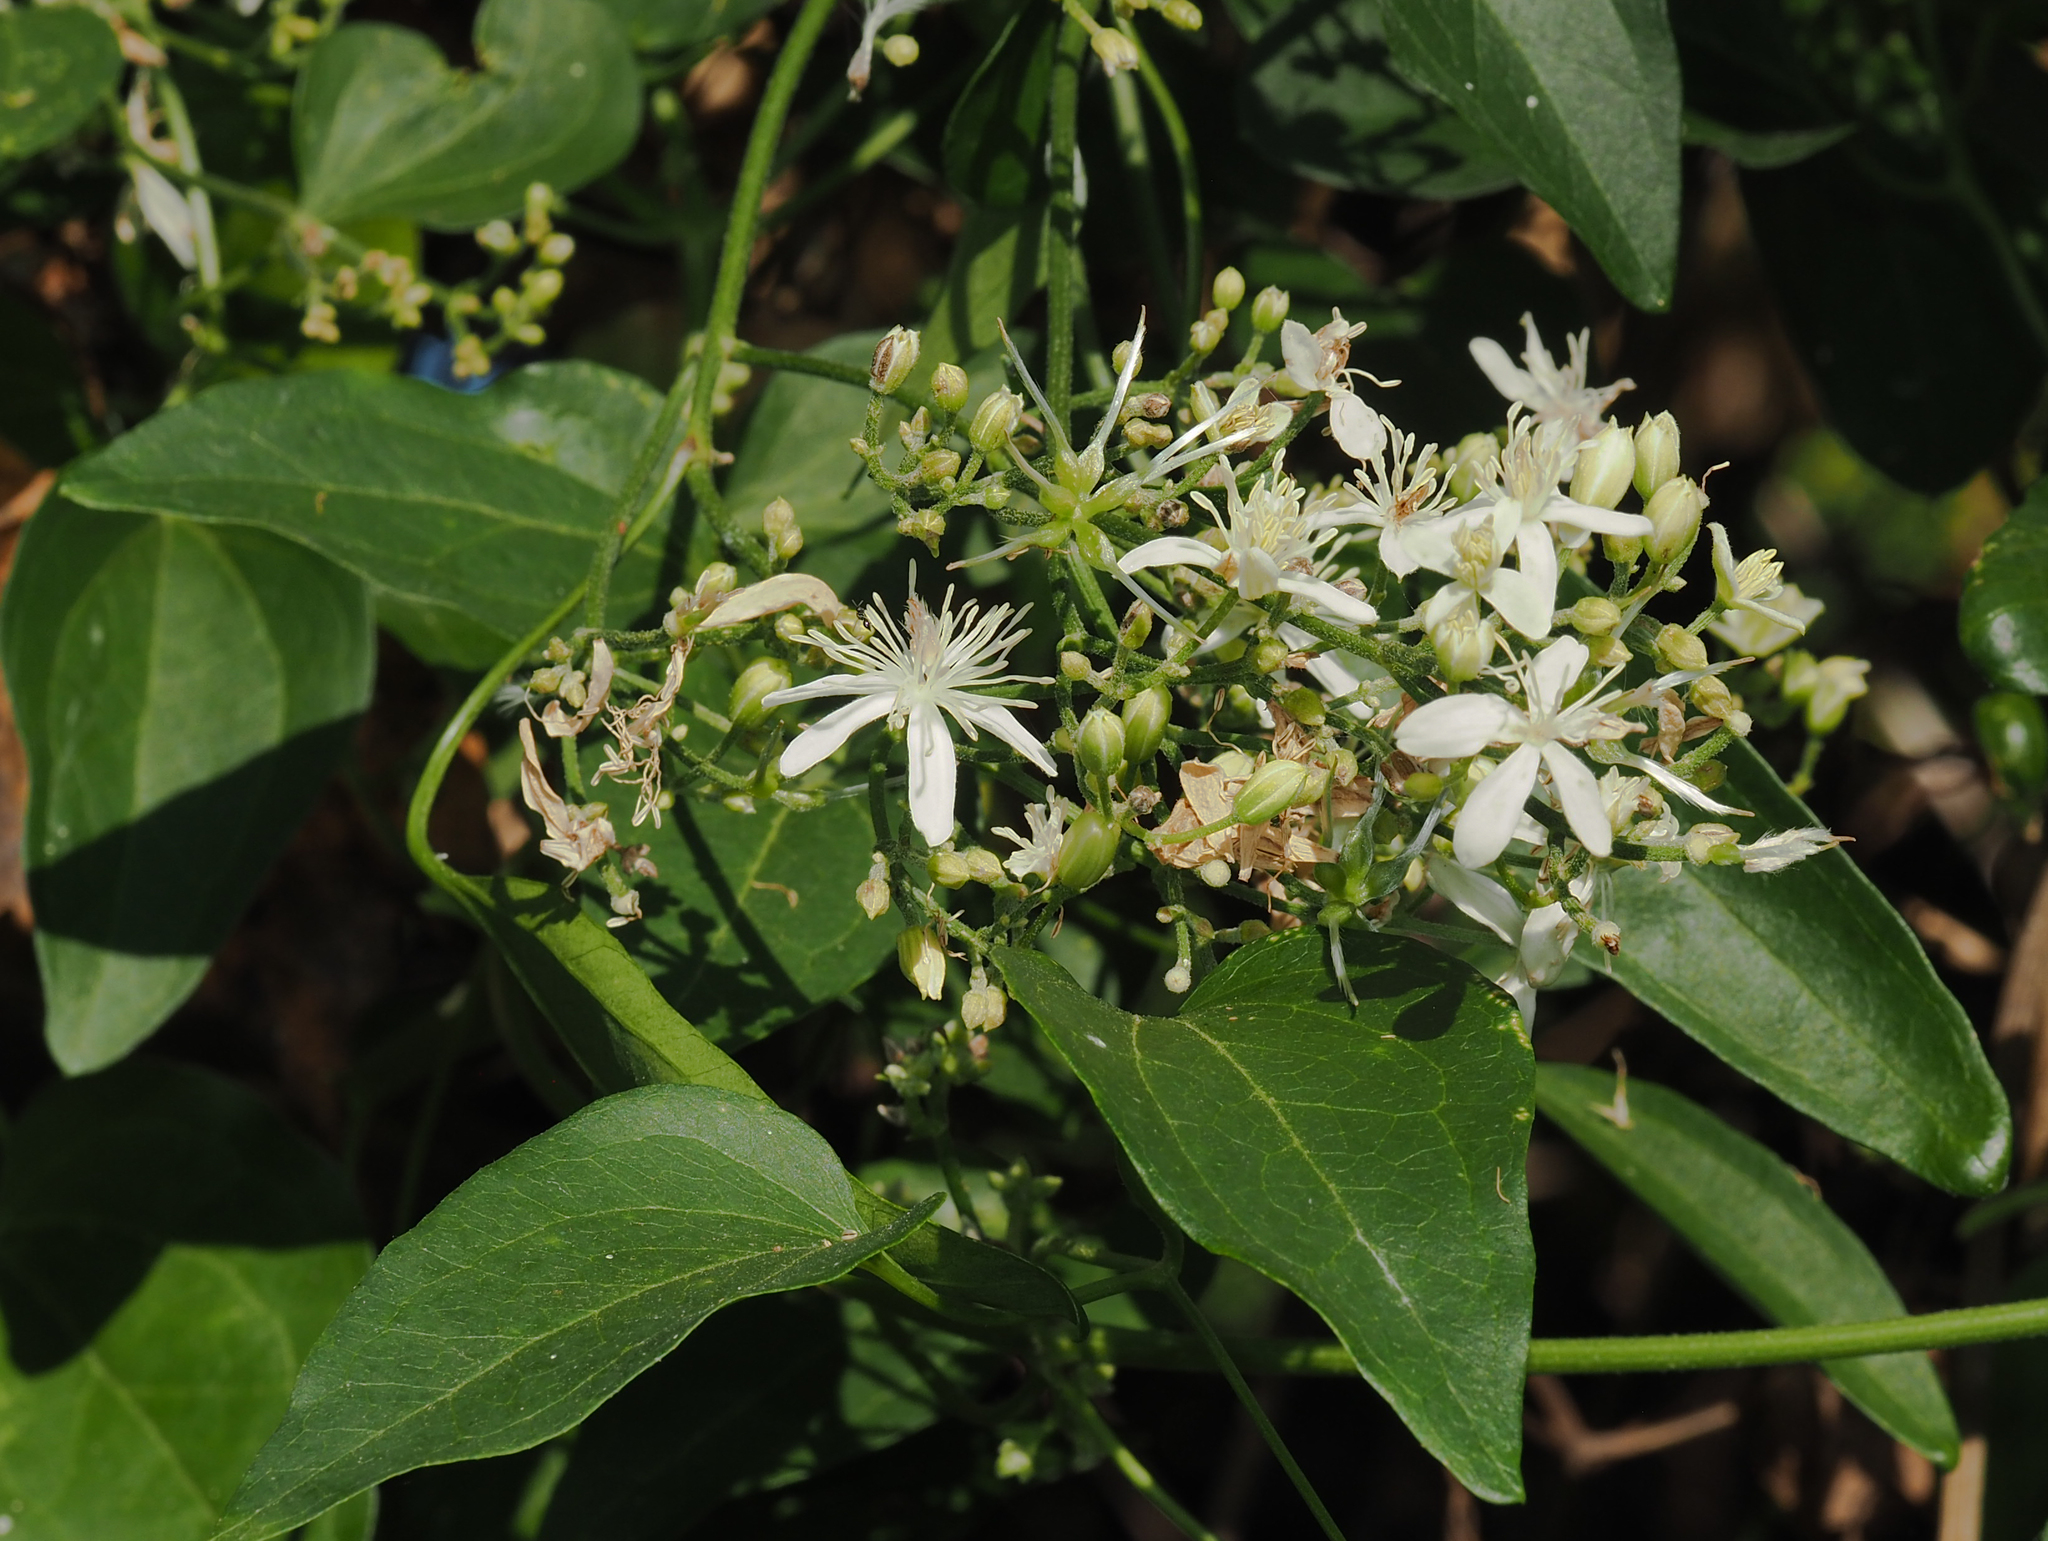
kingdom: Plantae
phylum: Tracheophyta
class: Magnoliopsida
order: Ranunculales
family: Ranunculaceae
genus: Clematis
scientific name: Clematis terniflora
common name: Sweet autumn clematis
